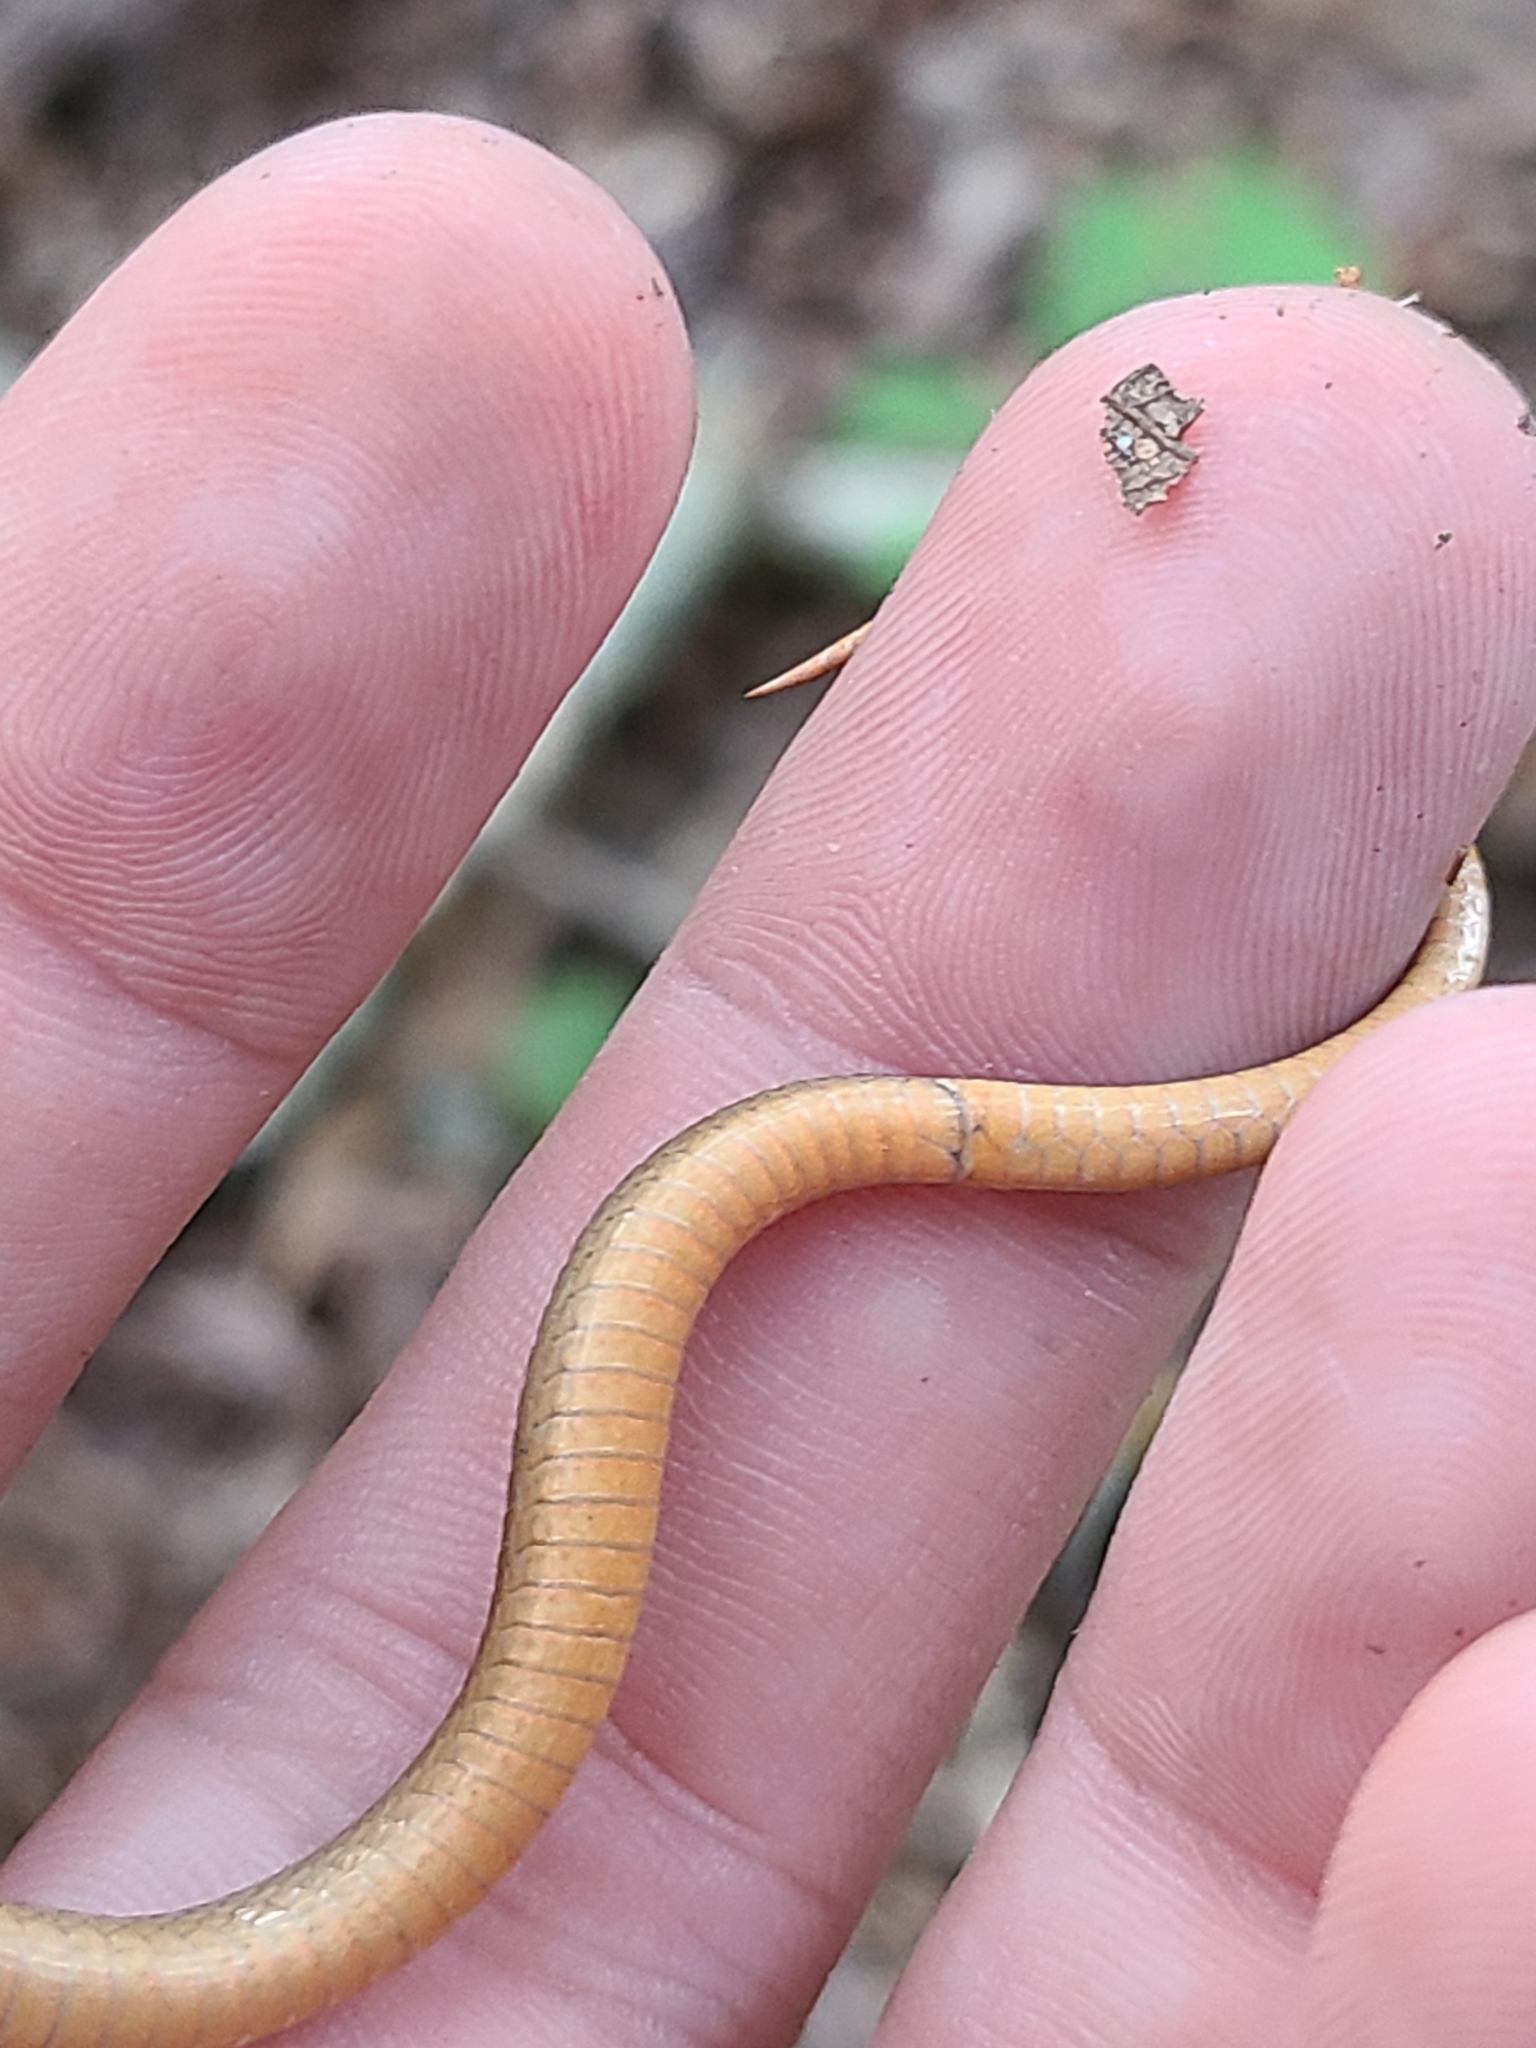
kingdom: Animalia
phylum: Chordata
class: Squamata
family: Colubridae
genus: Storeria
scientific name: Storeria occipitomaculata
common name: Redbelly snake
